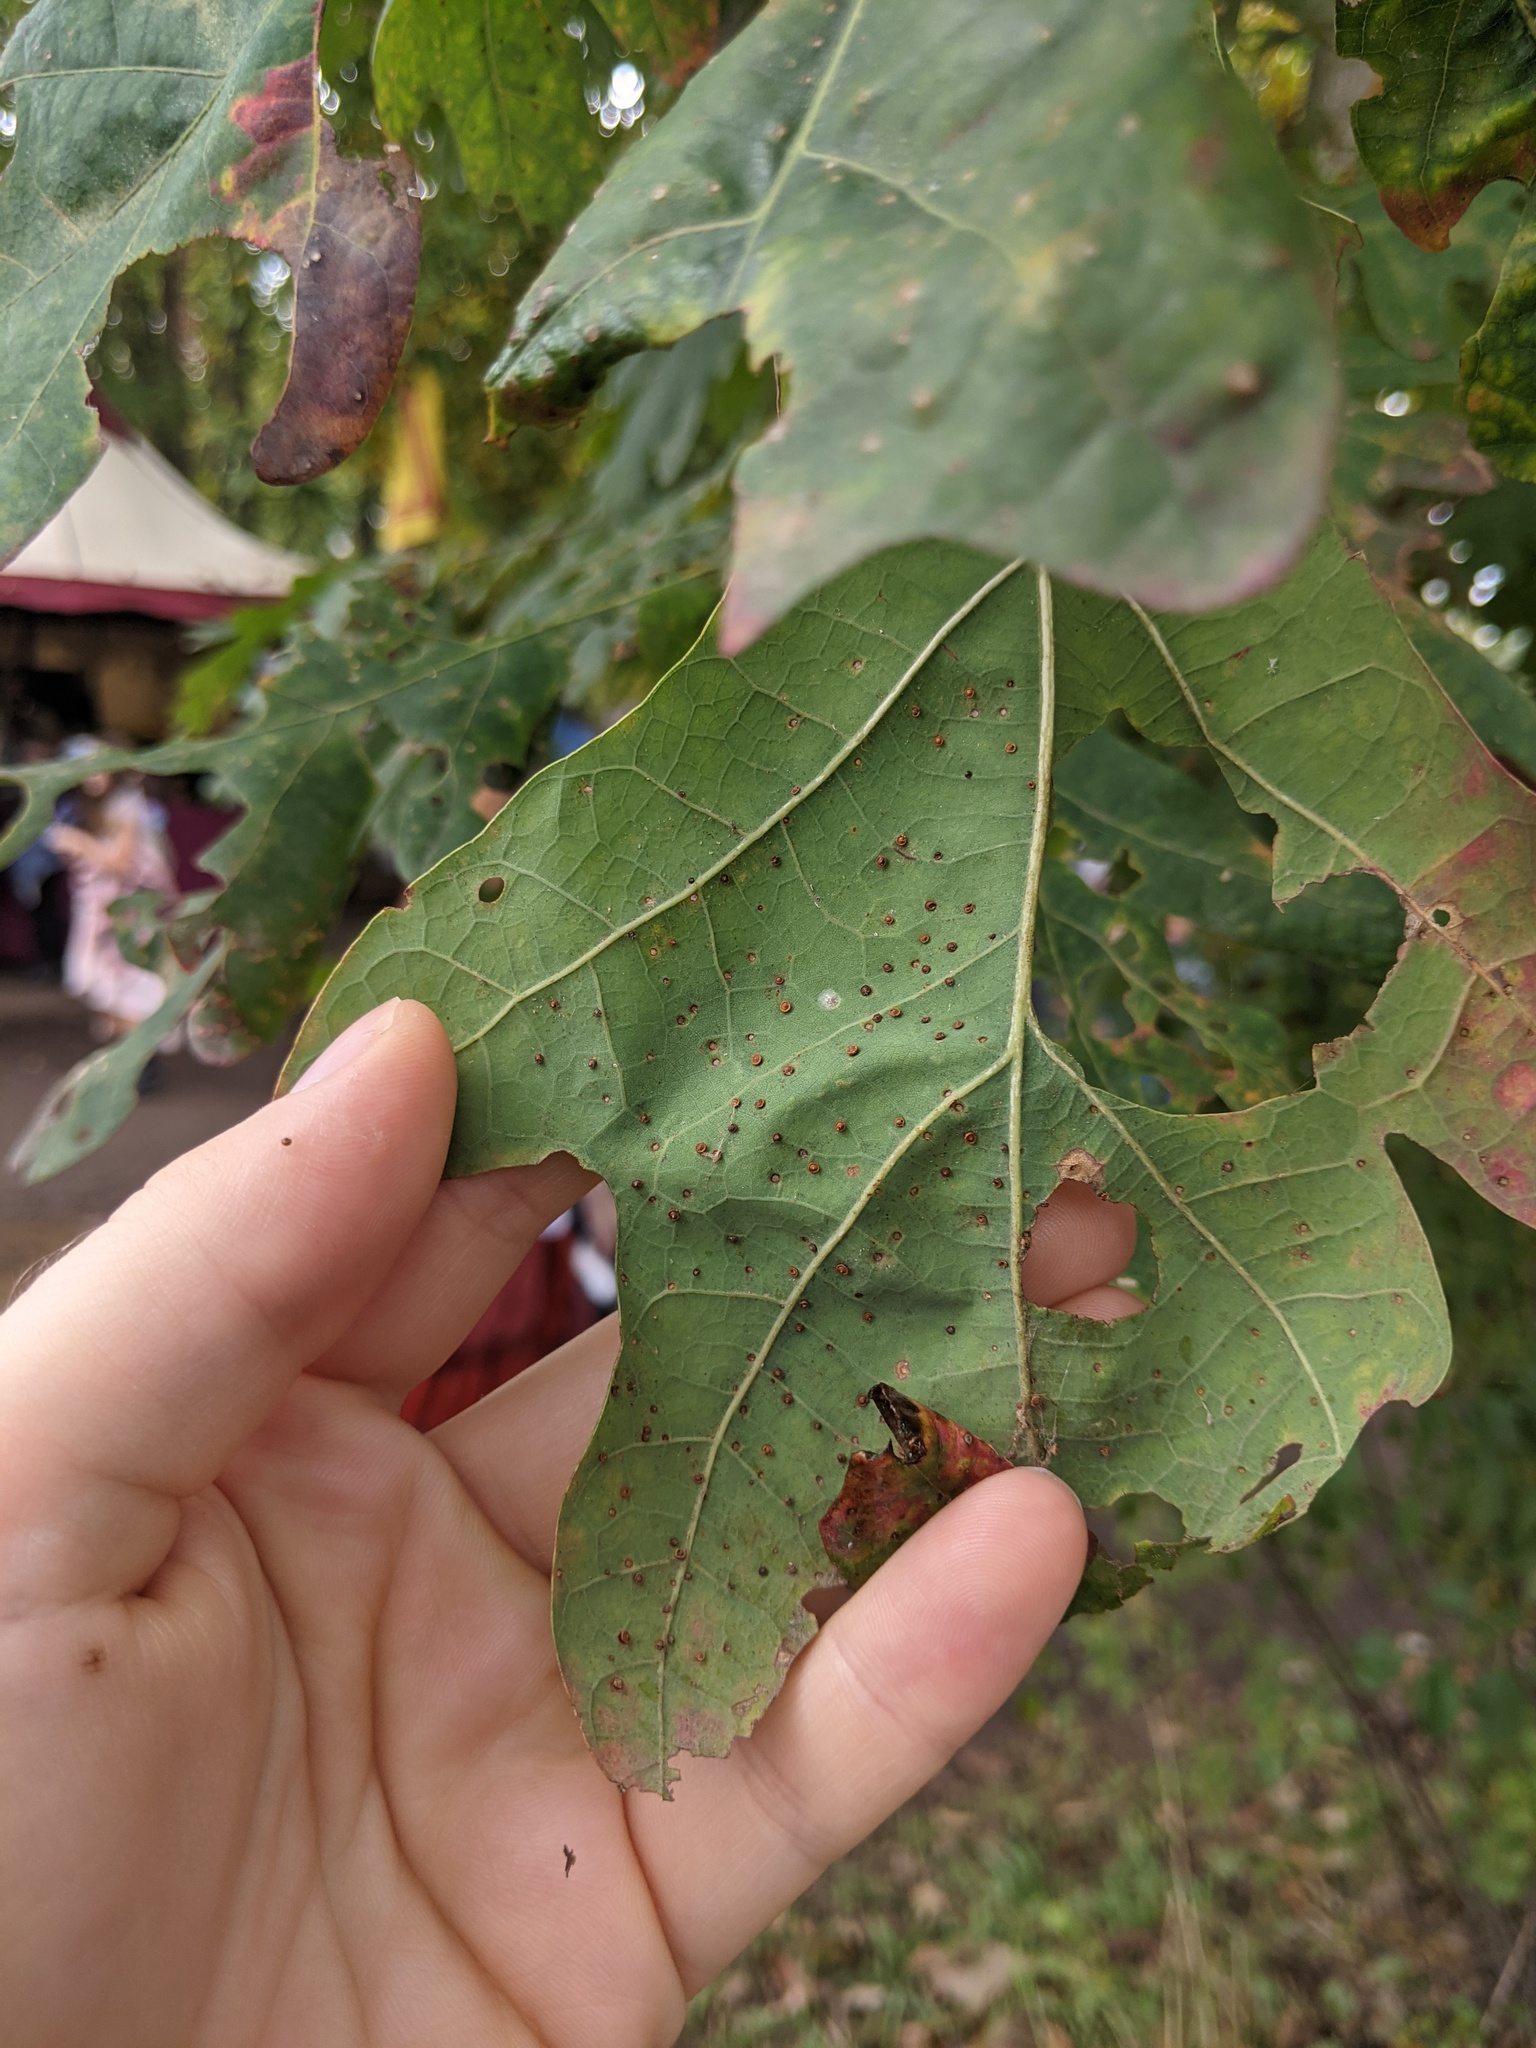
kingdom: Animalia
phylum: Arthropoda
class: Insecta
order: Hymenoptera
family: Cynipidae
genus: Neuroterus
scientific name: Neuroterus
